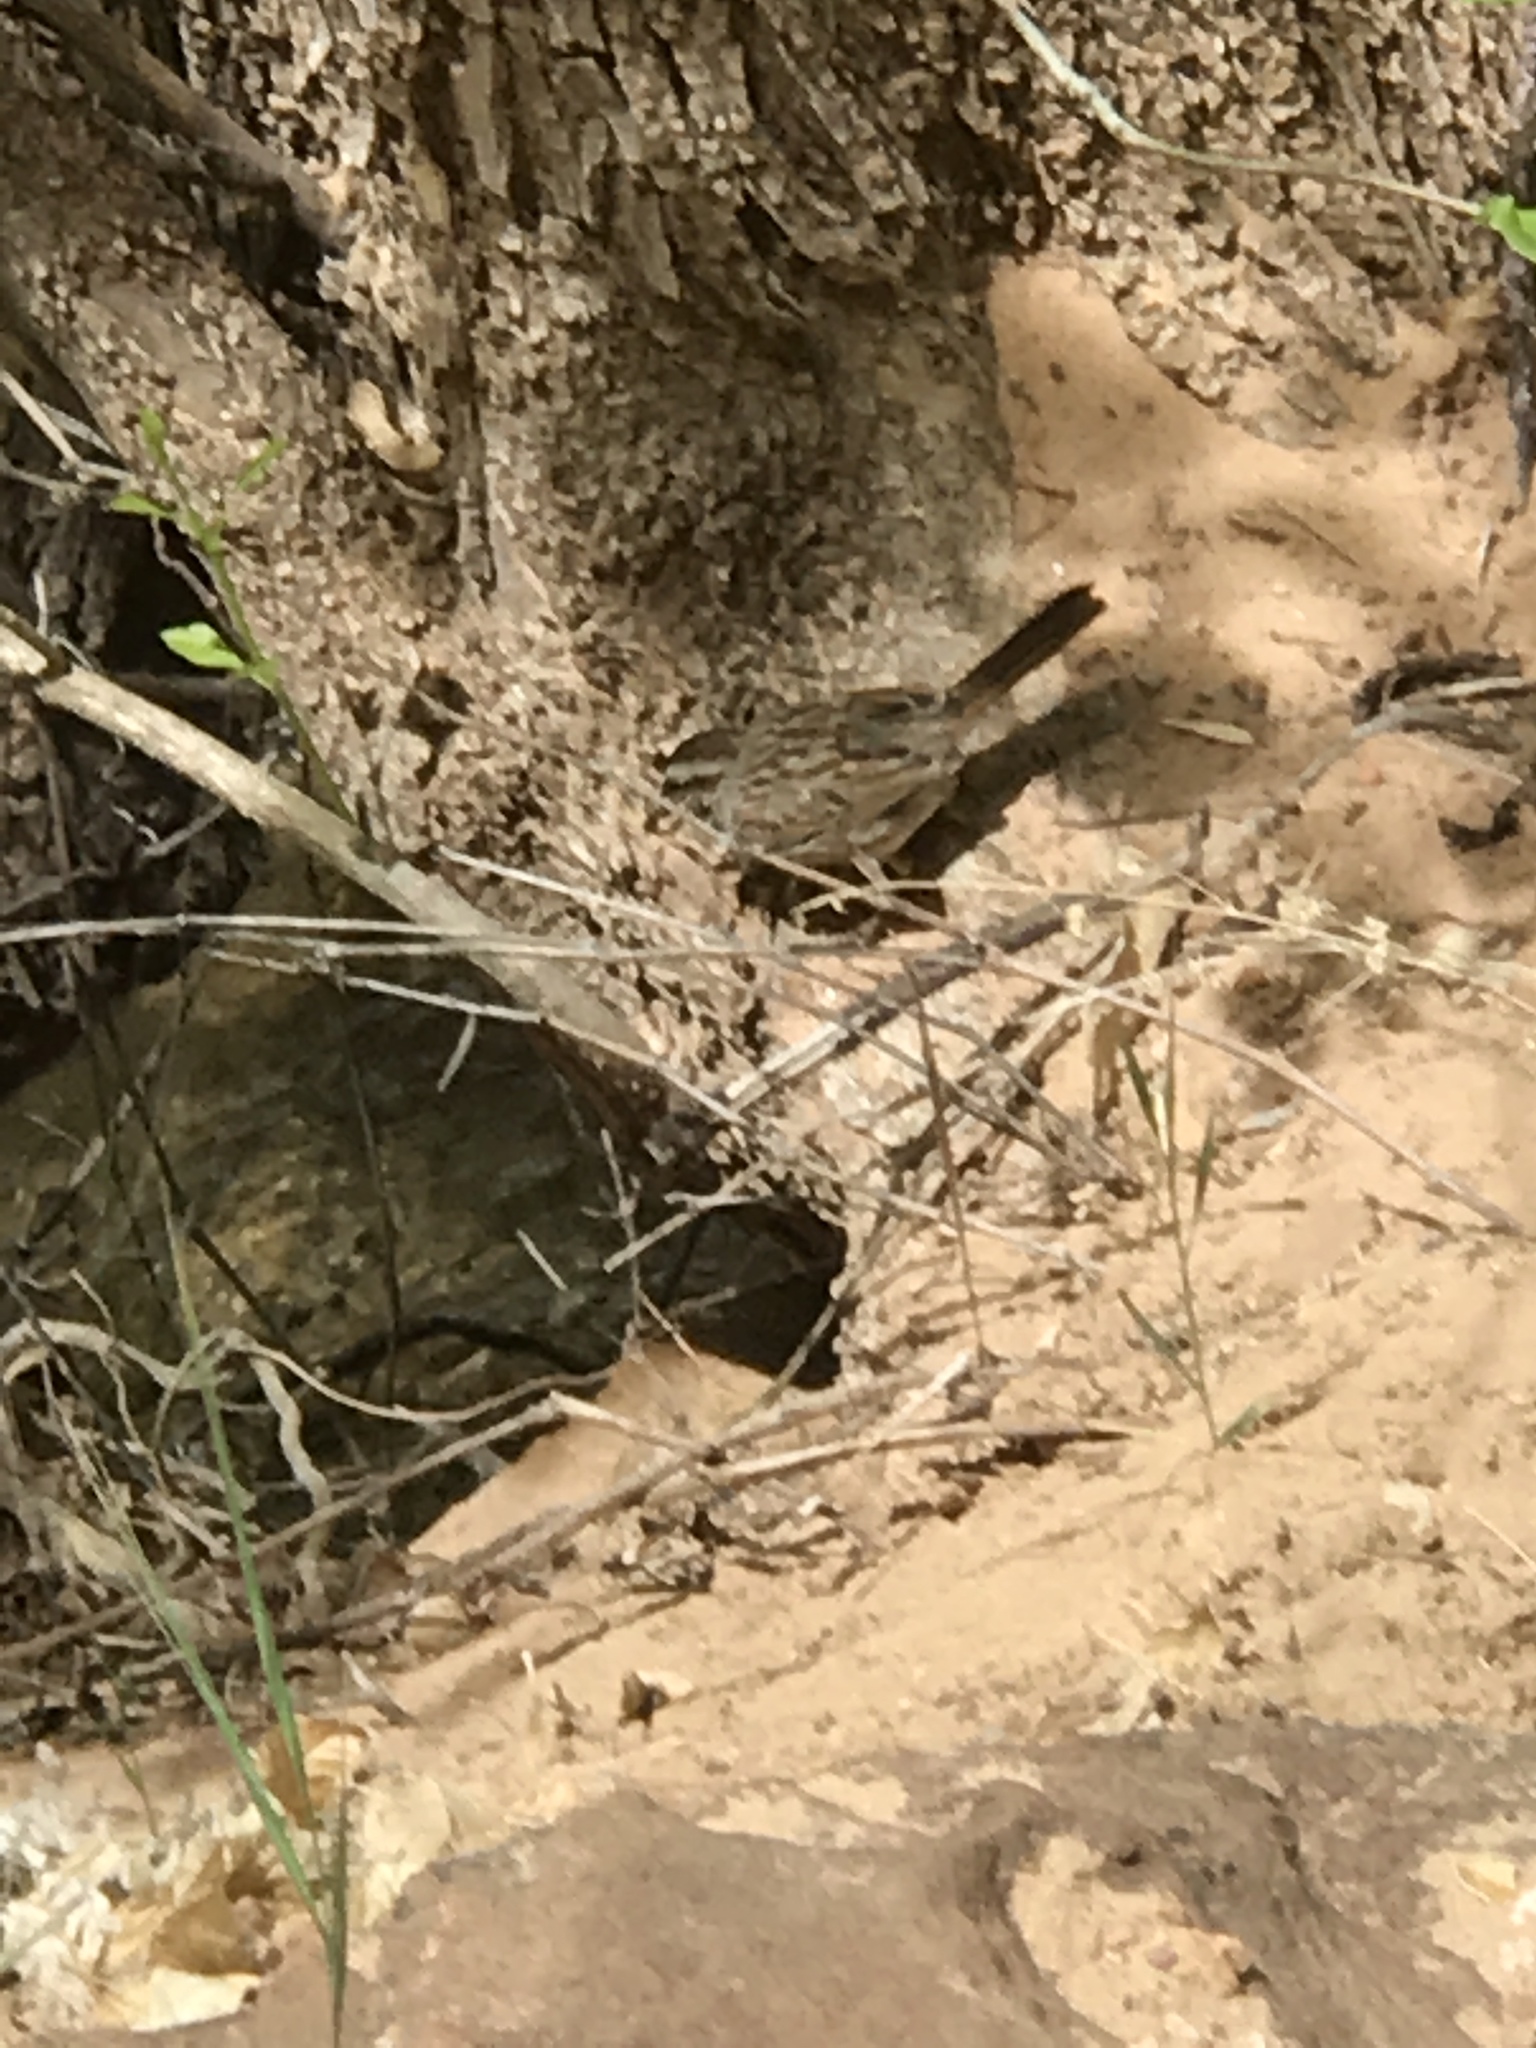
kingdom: Animalia
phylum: Chordata
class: Aves
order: Passeriformes
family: Passerellidae
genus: Melospiza
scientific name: Melospiza melodia
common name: Song sparrow
